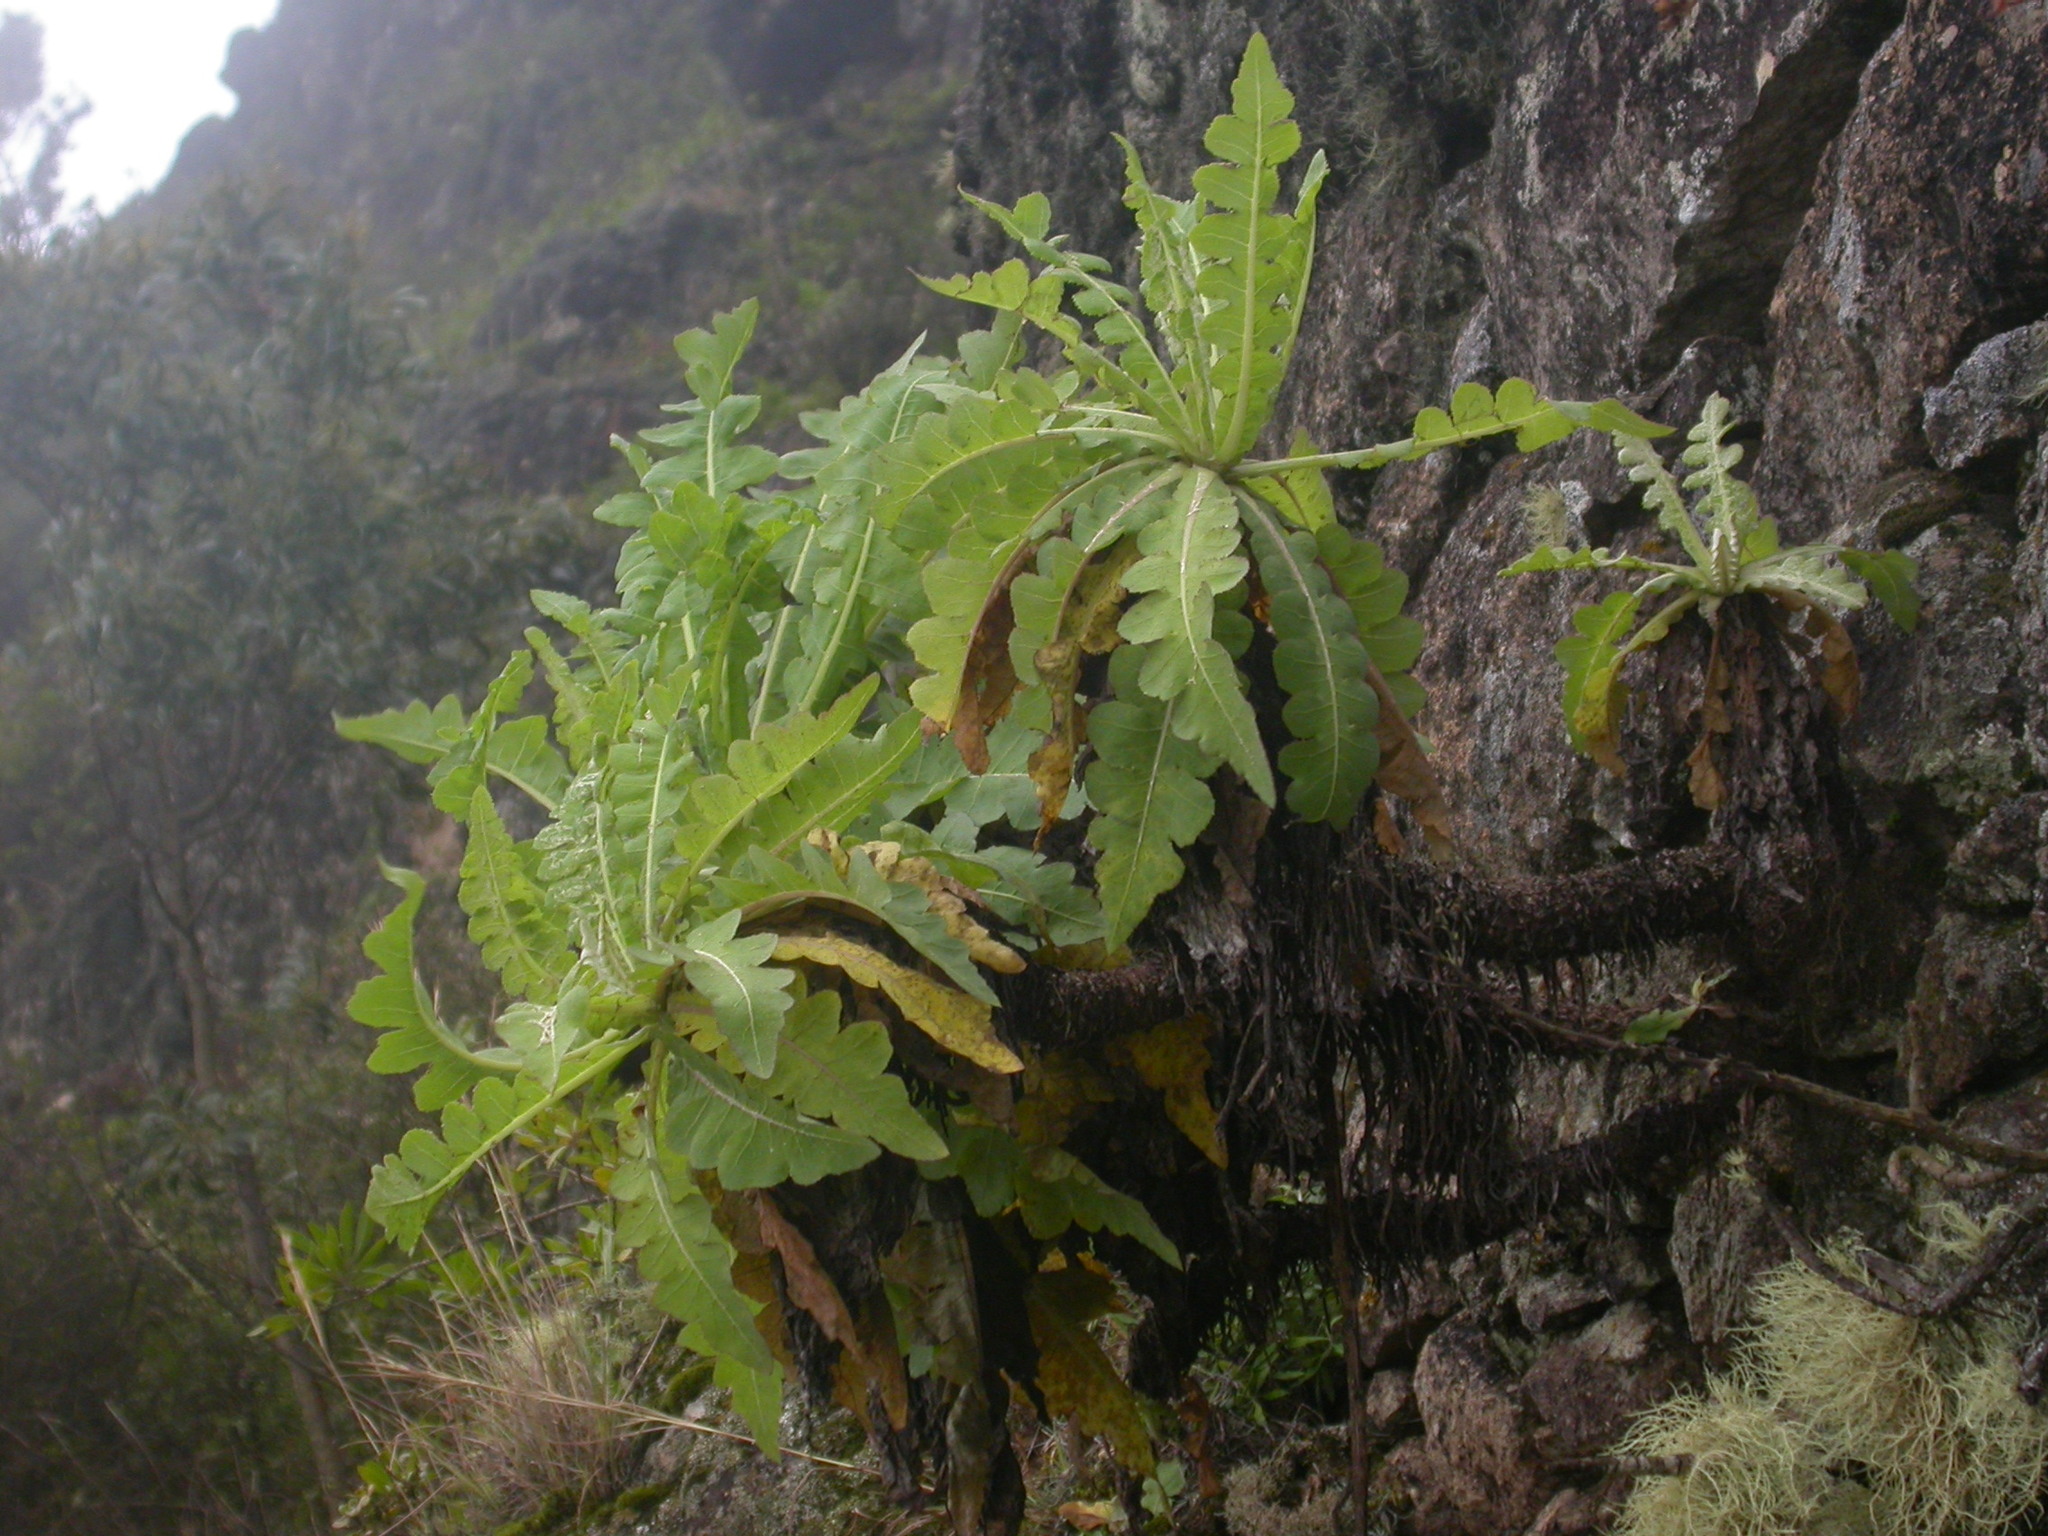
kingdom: Plantae
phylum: Tracheophyta
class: Magnoliopsida
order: Asterales
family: Asteraceae
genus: Sonchus
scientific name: Sonchus daltonii
